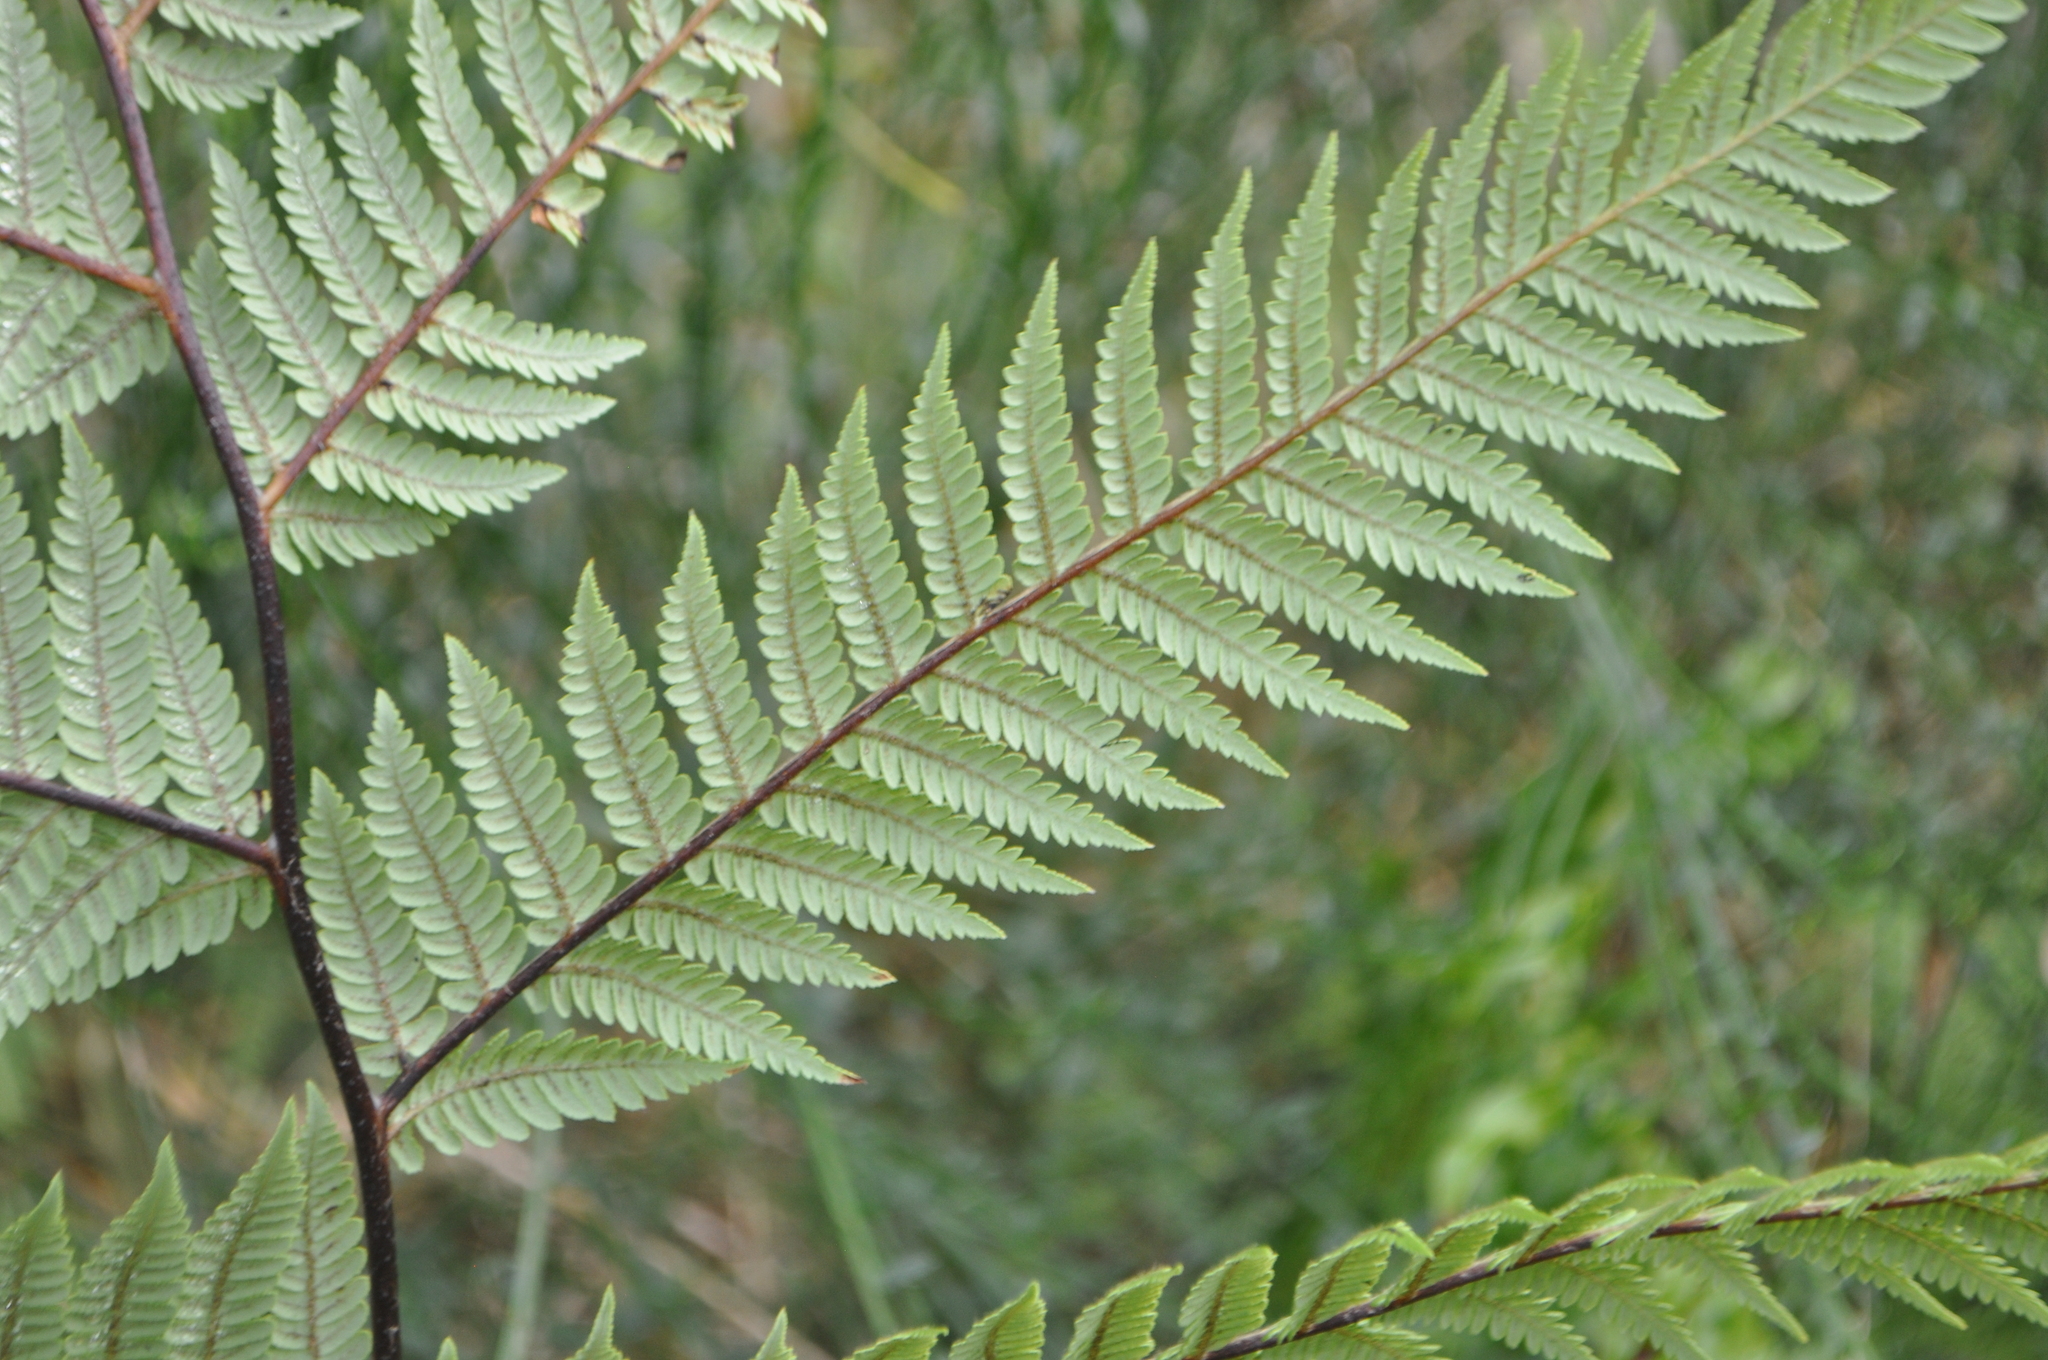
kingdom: Plantae
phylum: Tracheophyta
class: Polypodiopsida
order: Cyatheales
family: Cyatheaceae
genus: Sphaeropteris
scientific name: Sphaeropteris medullaris
